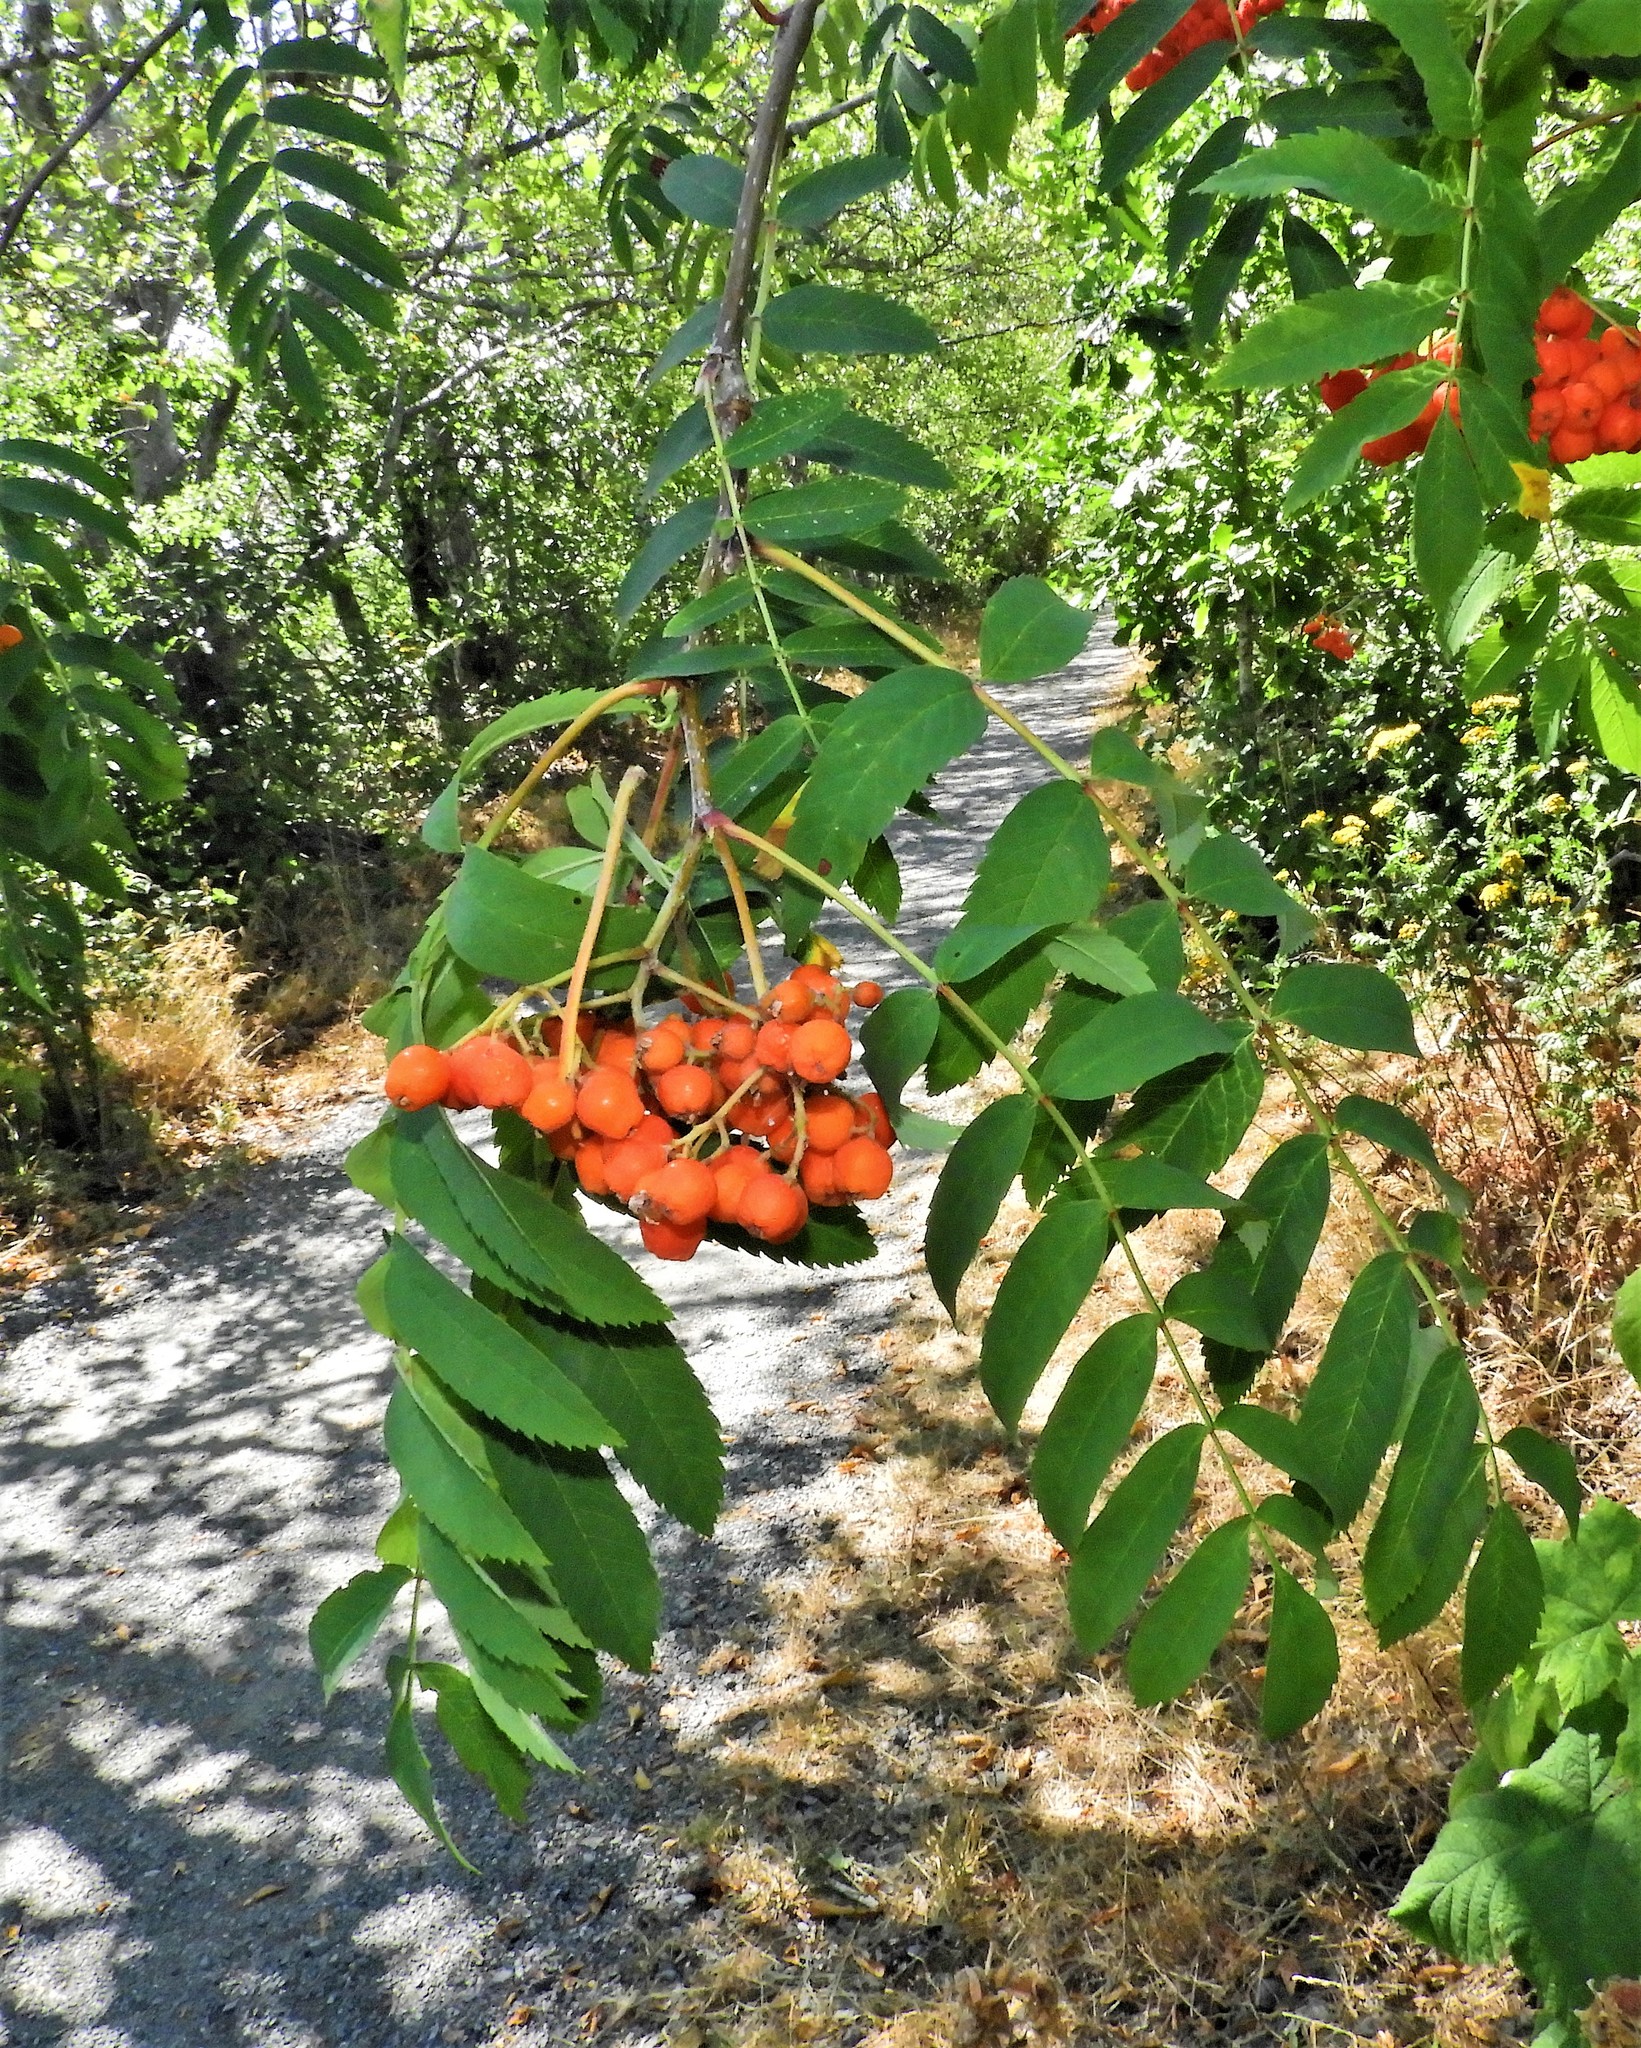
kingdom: Plantae
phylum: Tracheophyta
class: Magnoliopsida
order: Rosales
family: Rosaceae
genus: Sorbus
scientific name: Sorbus aucuparia
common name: Rowan
